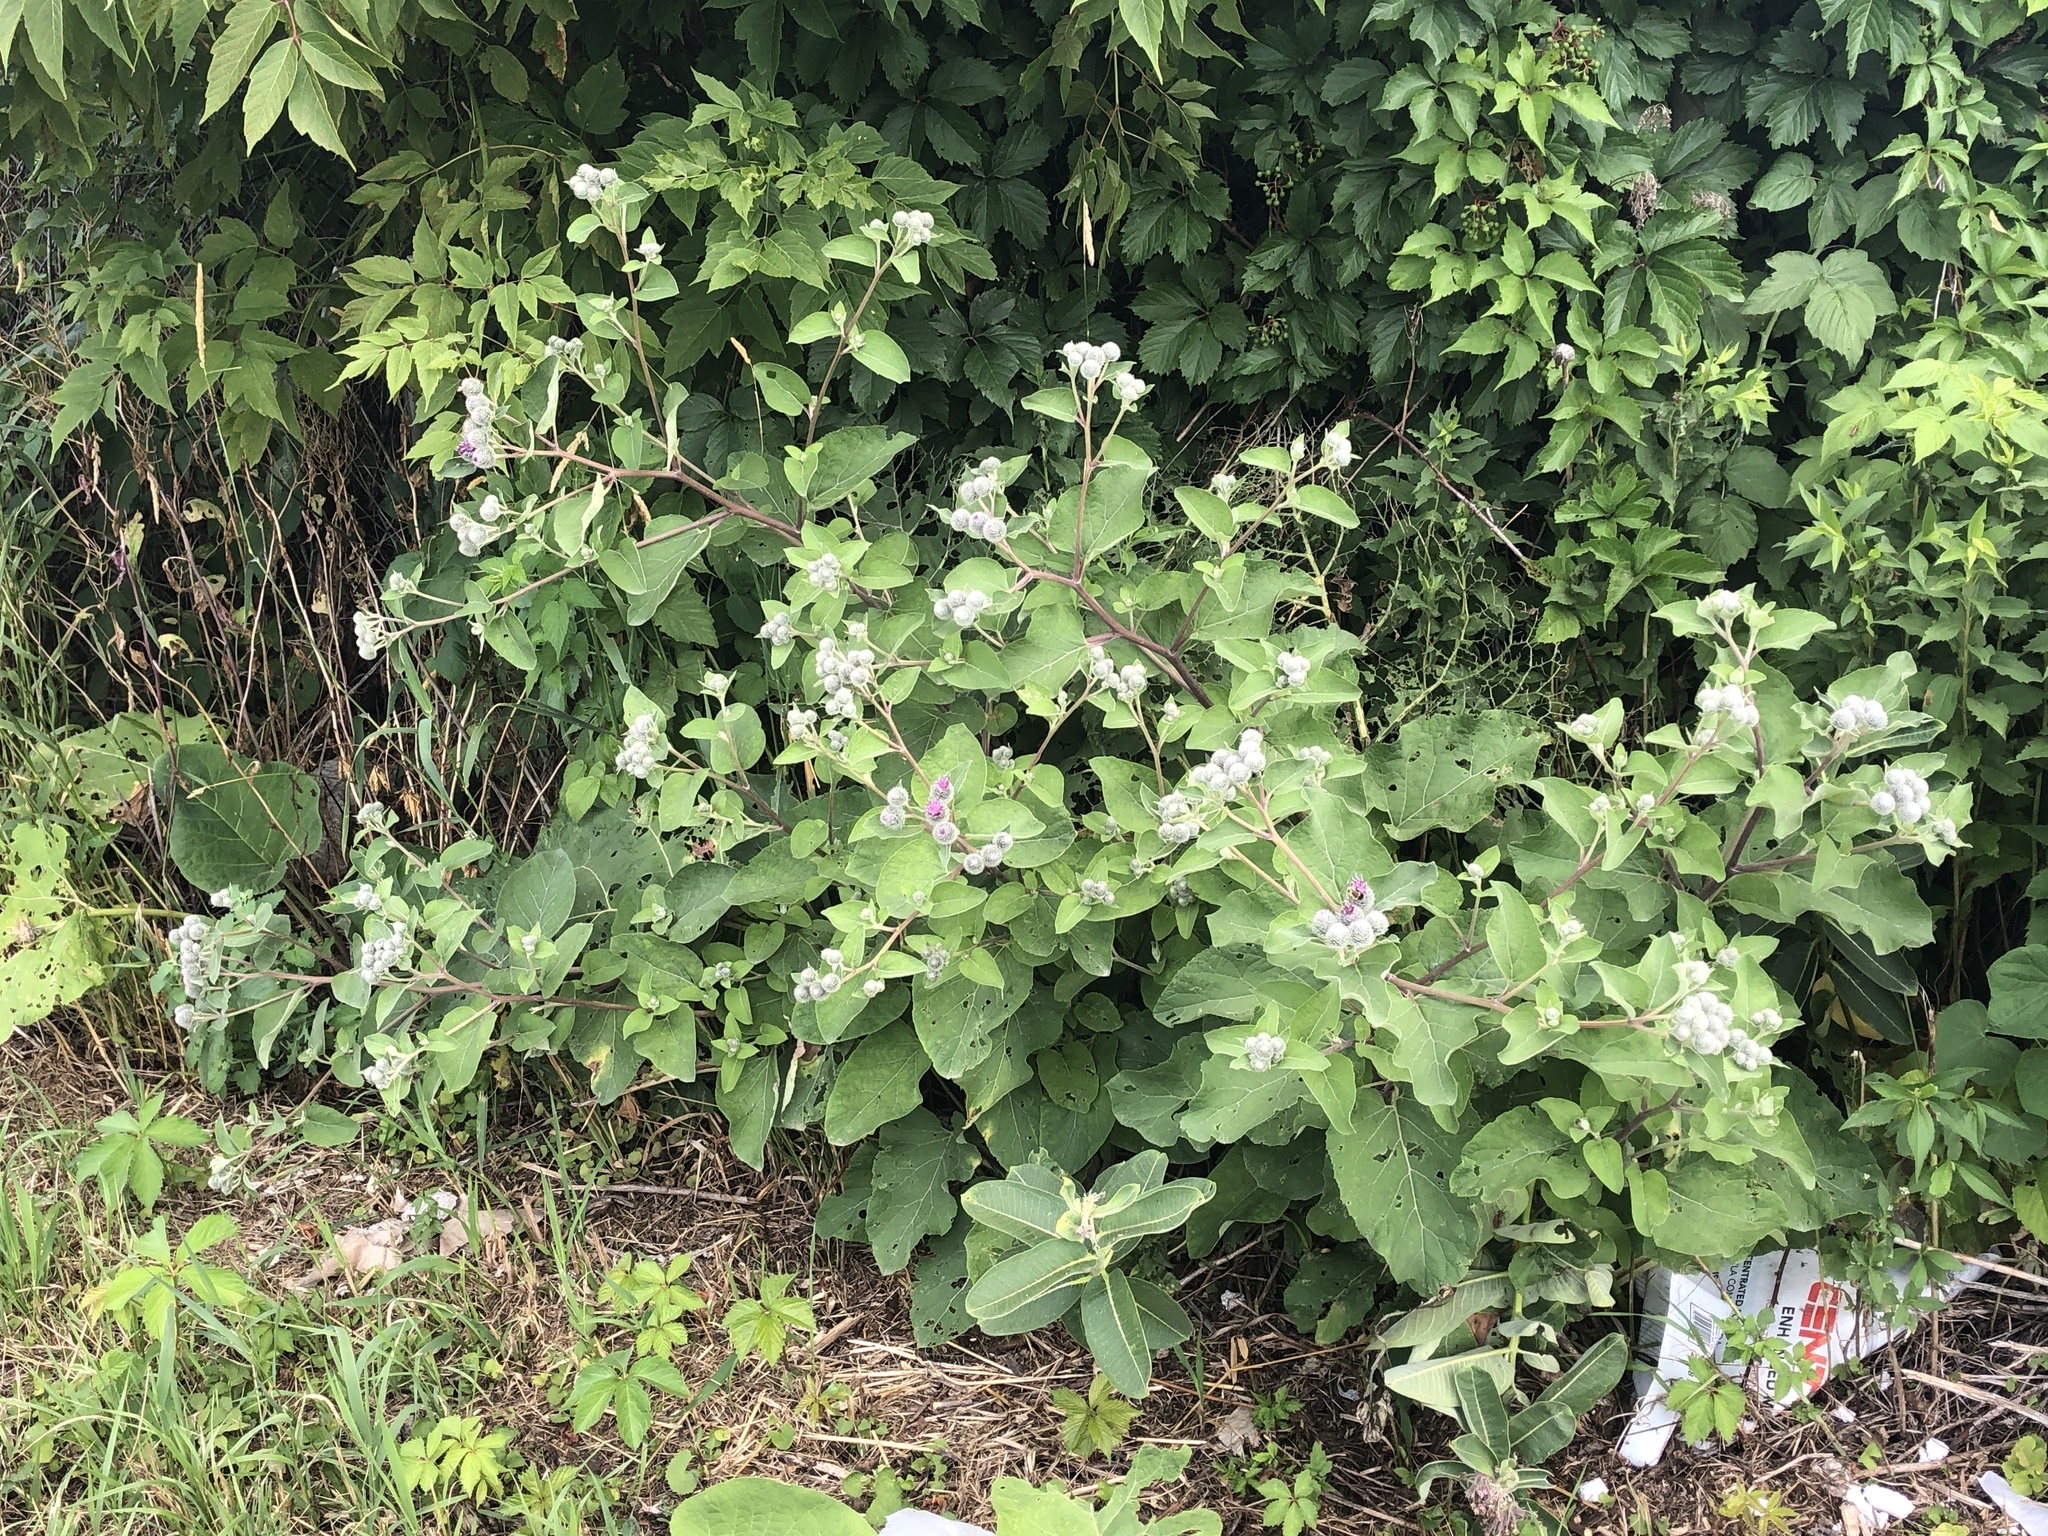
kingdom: Plantae
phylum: Tracheophyta
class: Magnoliopsida
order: Asterales
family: Asteraceae
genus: Arctium
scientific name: Arctium tomentosum
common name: Woolly burdock
